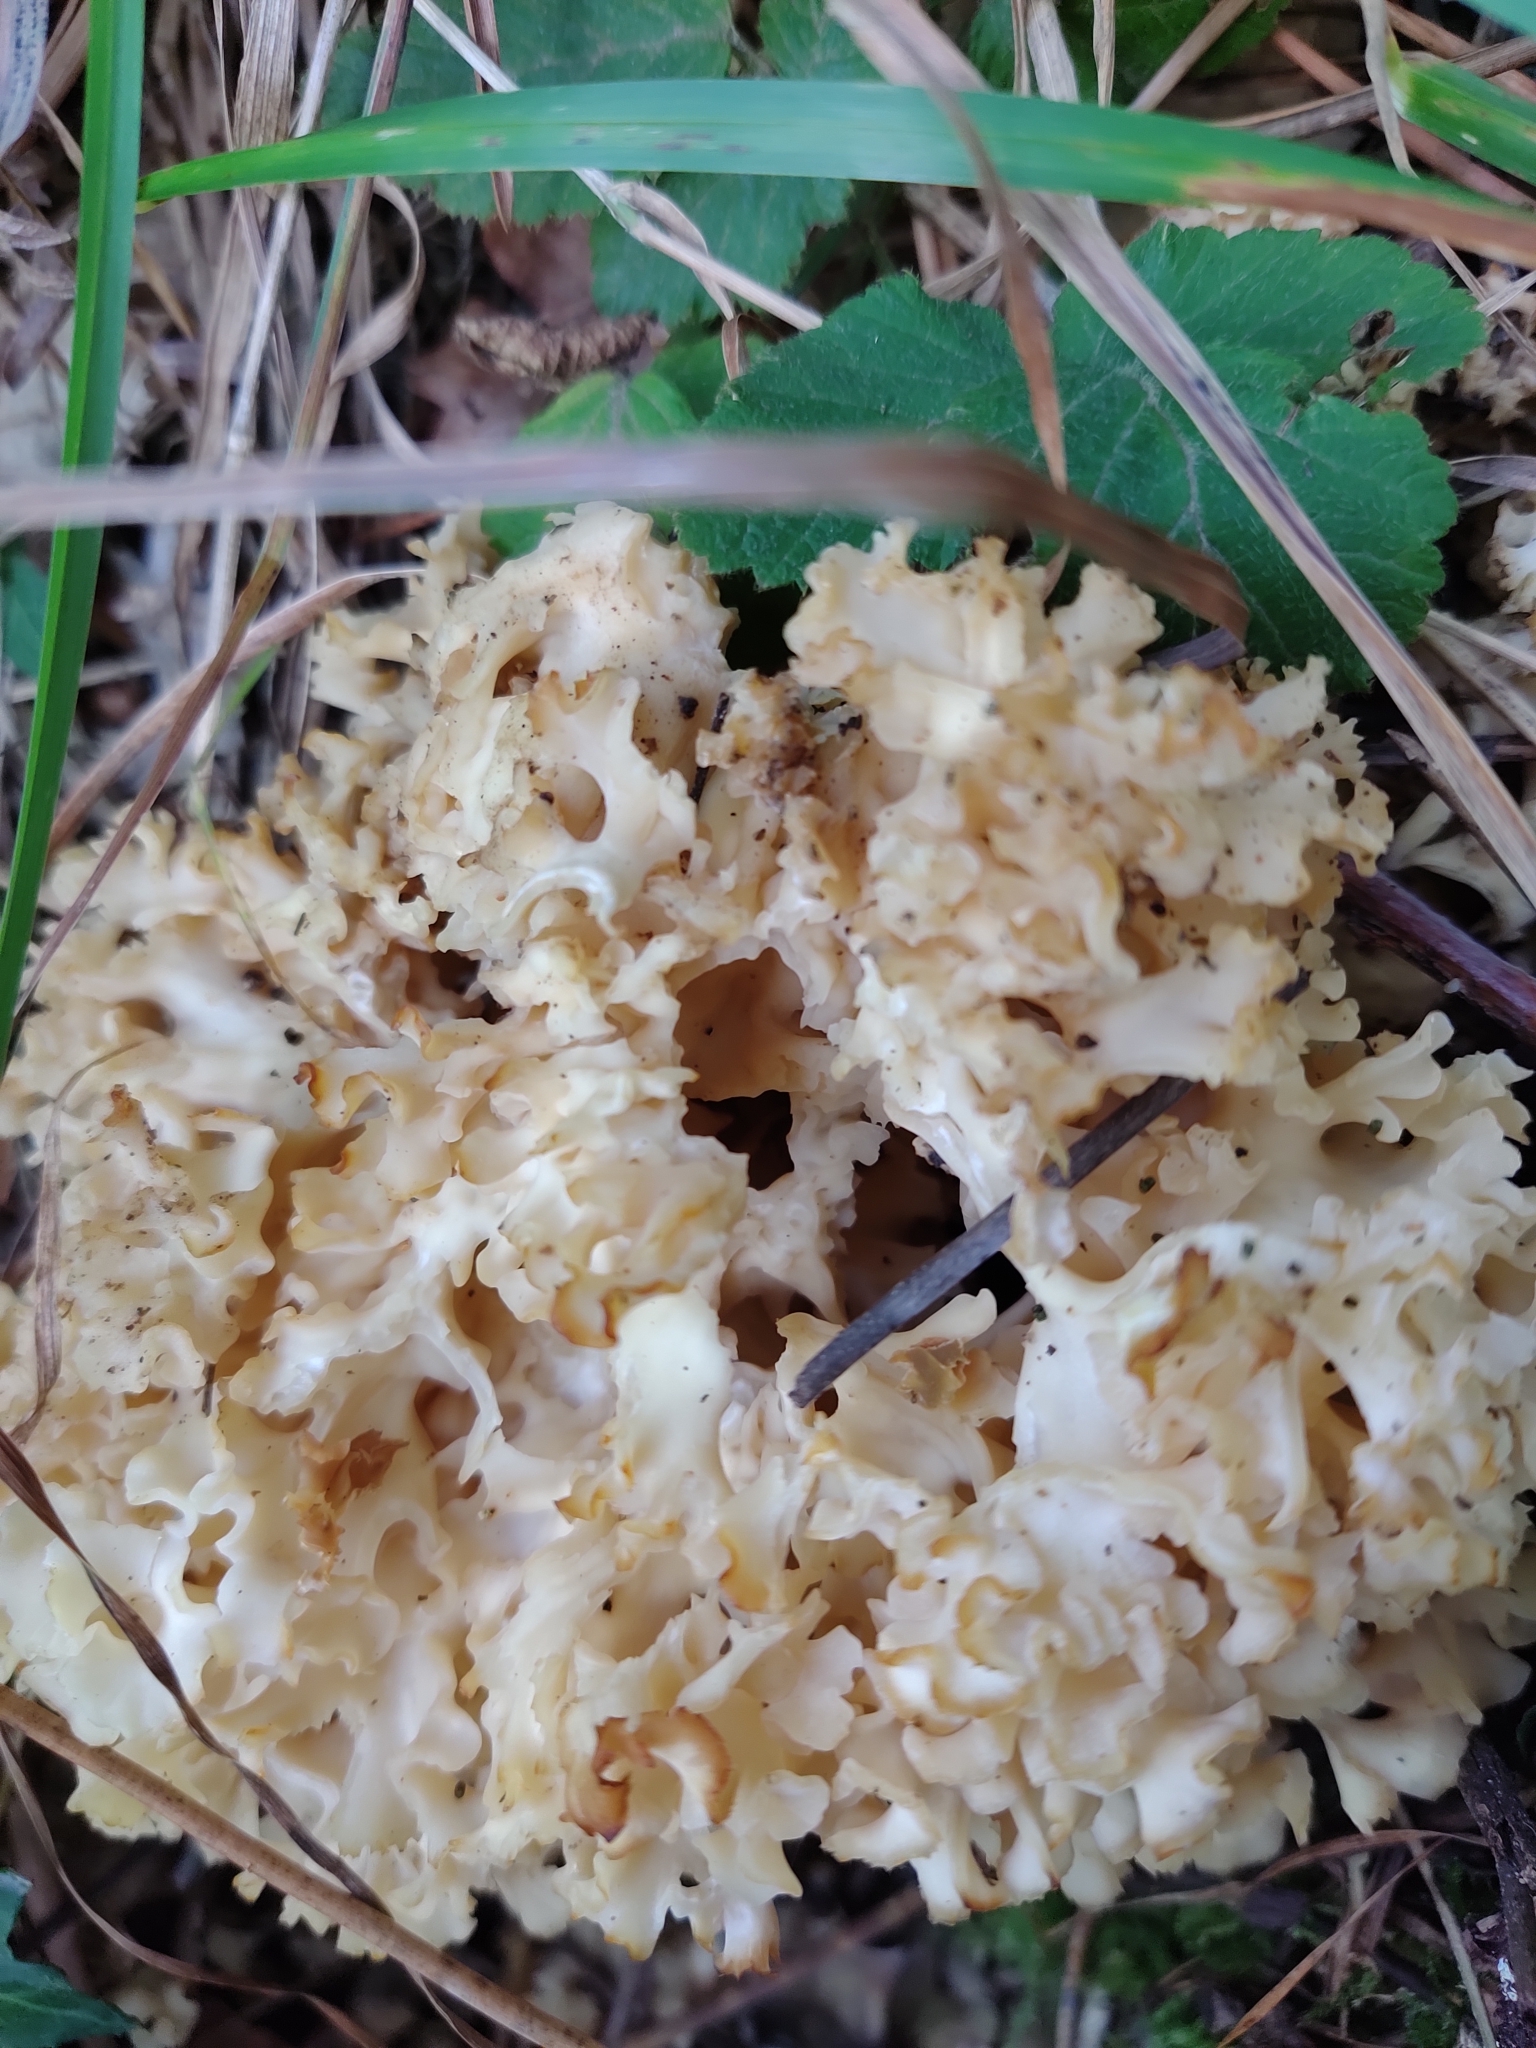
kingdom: Fungi
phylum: Basidiomycota
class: Agaricomycetes
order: Polyporales
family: Sparassidaceae
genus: Sparassis
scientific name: Sparassis crispa
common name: Brain fungus
